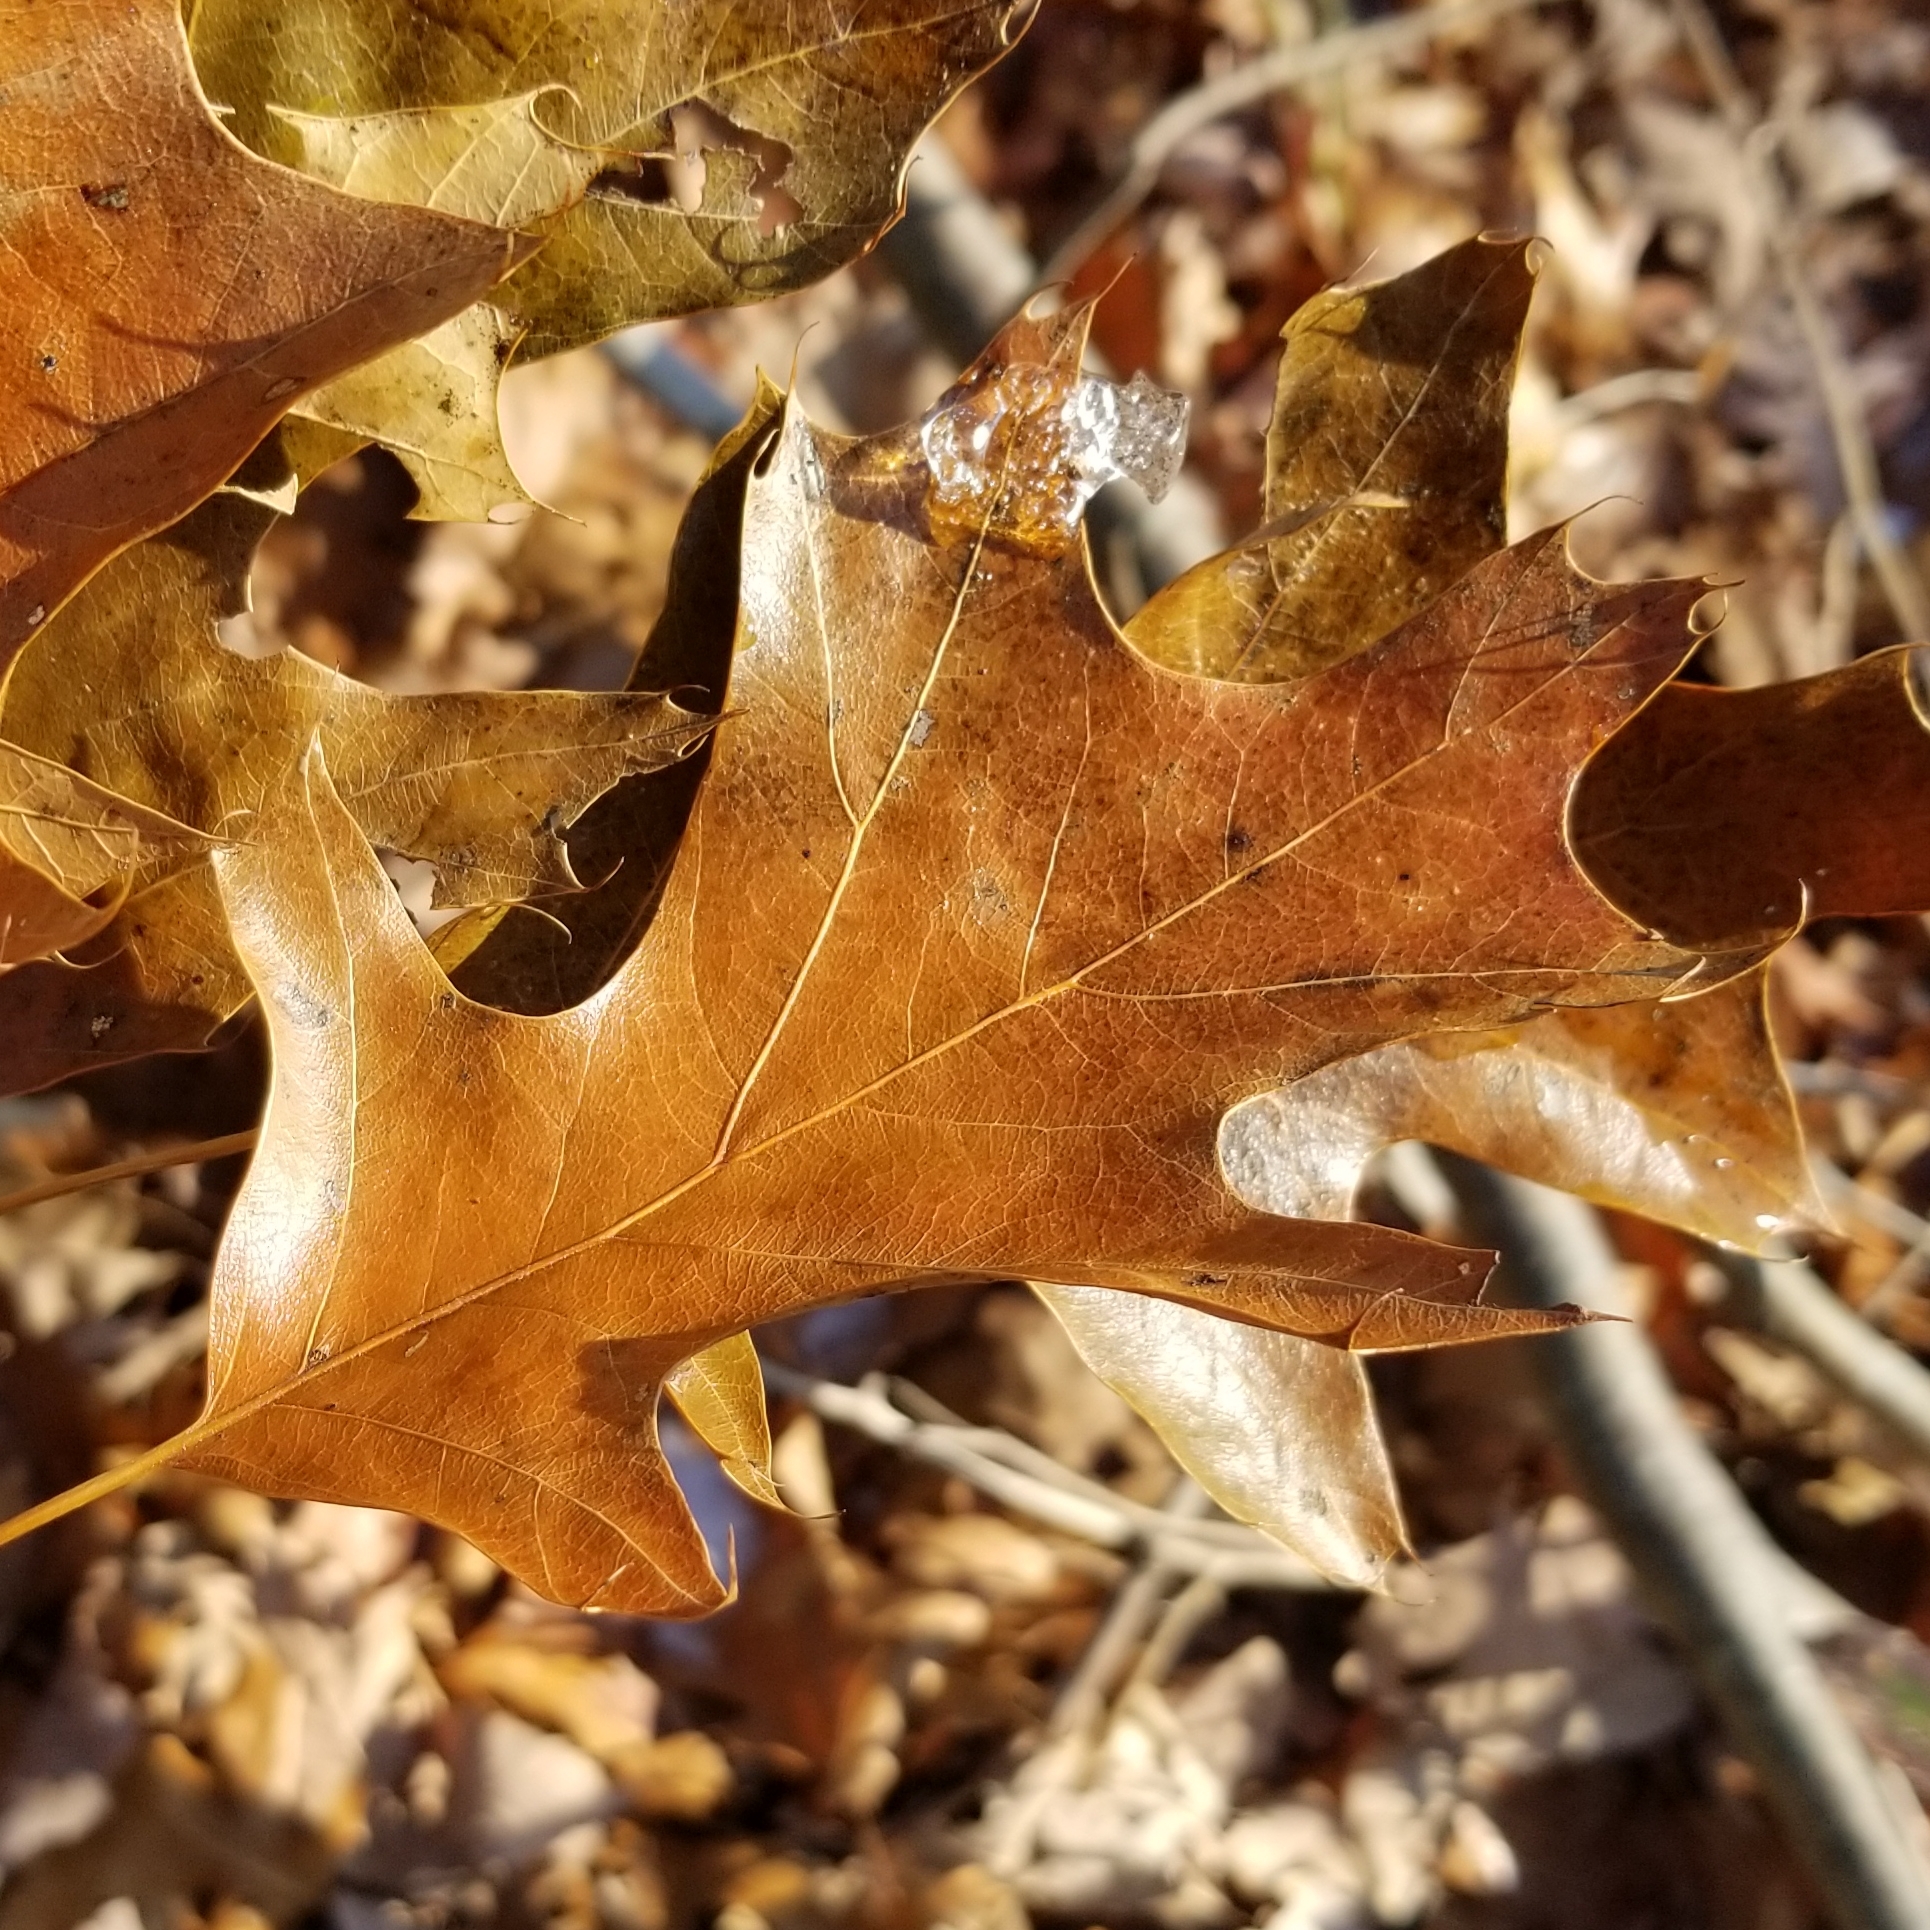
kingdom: Plantae
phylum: Tracheophyta
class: Magnoliopsida
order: Fagales
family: Fagaceae
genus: Quercus
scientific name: Quercus velutina
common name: Black oak
